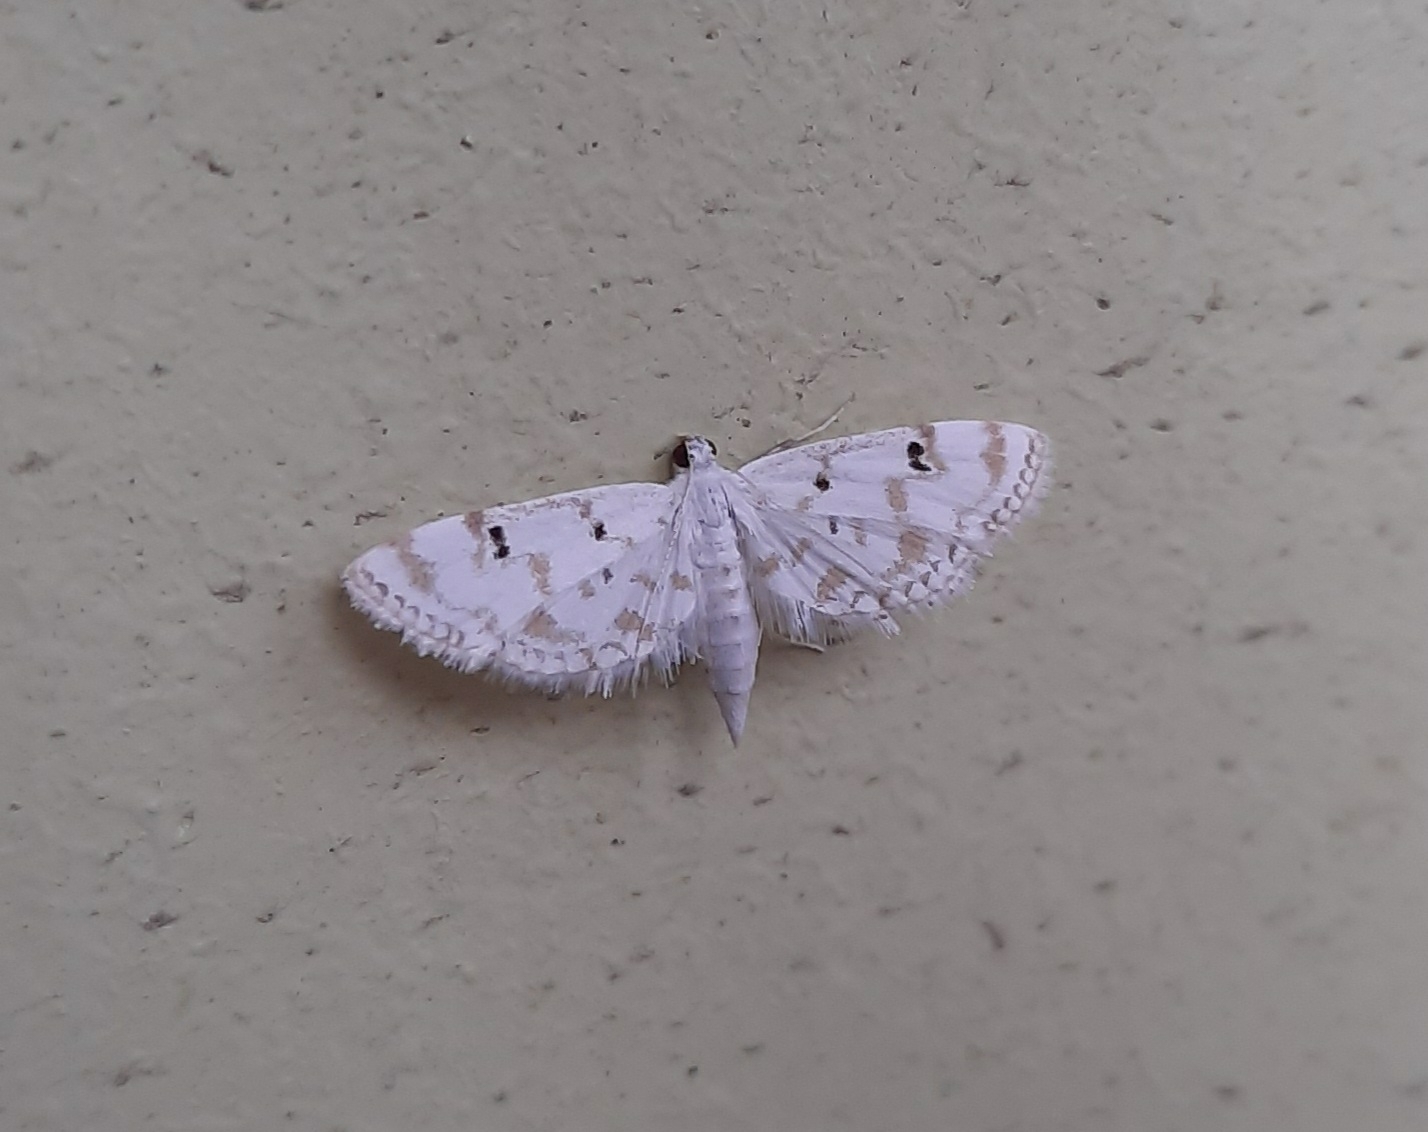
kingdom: Animalia
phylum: Arthropoda
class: Insecta
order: Lepidoptera
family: Crambidae
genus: Parapoynx
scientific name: Parapoynx stagnalis
